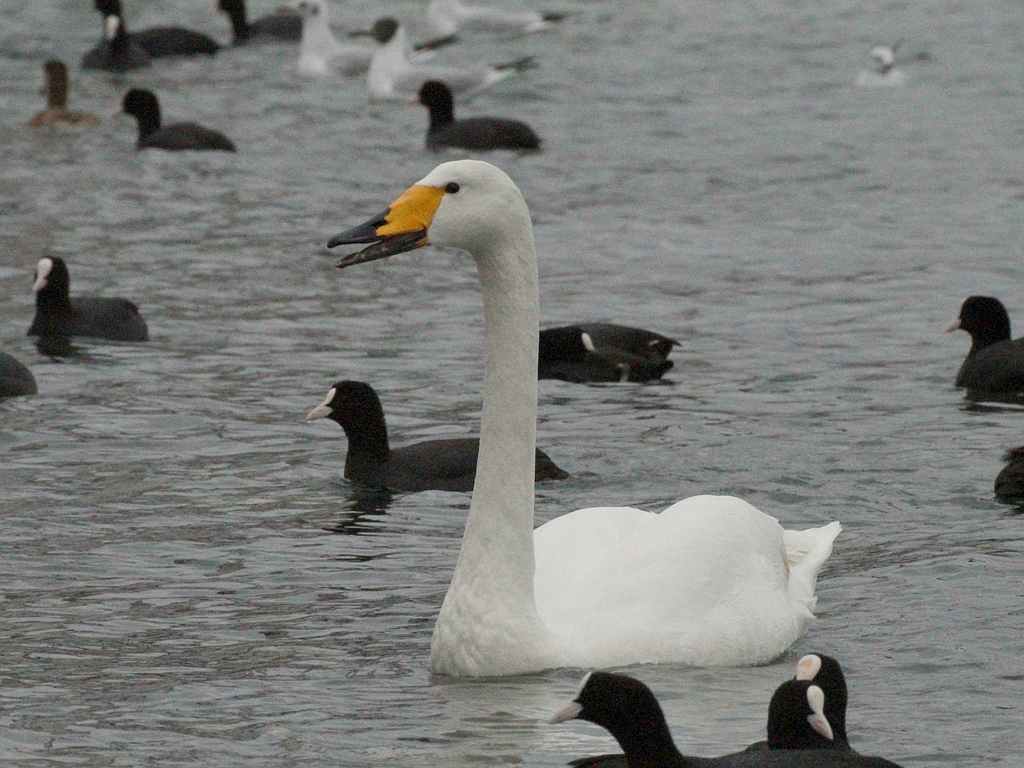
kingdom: Animalia
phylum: Chordata
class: Aves
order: Anseriformes
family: Anatidae
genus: Cygnus
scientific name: Cygnus cygnus
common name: Whooper swan
